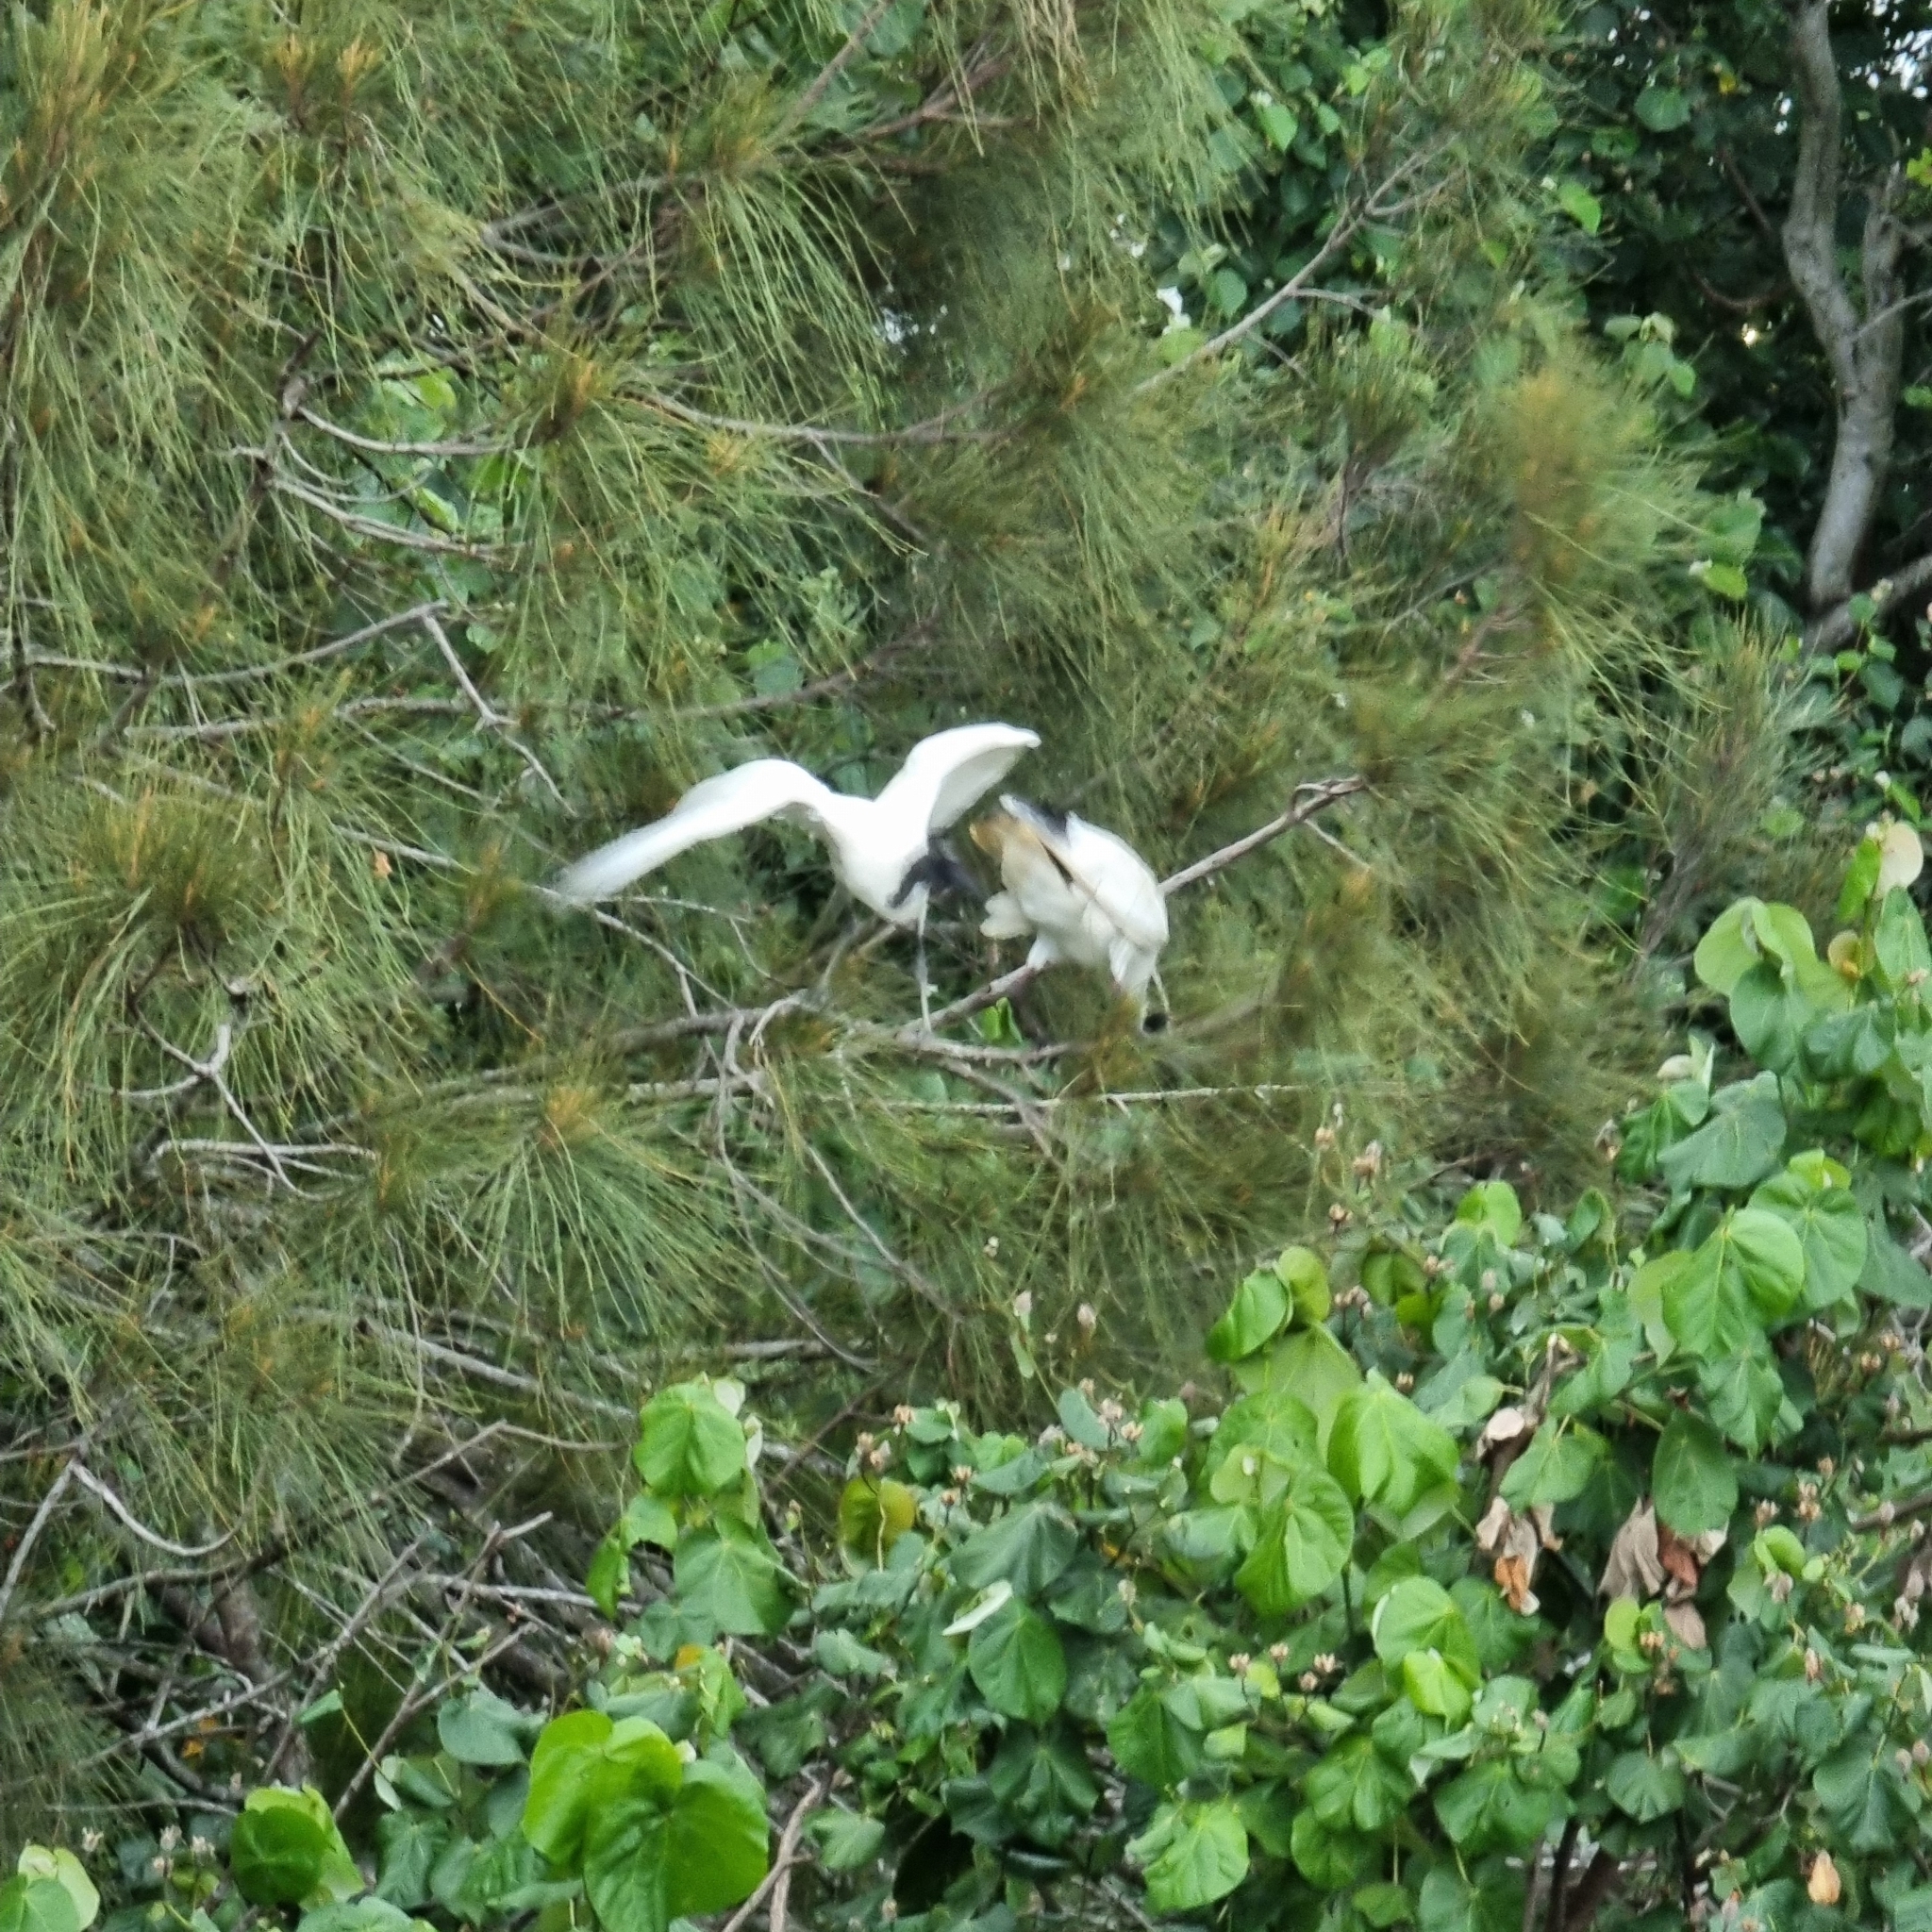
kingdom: Animalia
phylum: Chordata
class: Aves
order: Pelecaniformes
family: Threskiornithidae
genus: Threskiornis
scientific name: Threskiornis molucca
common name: Australian white ibis
